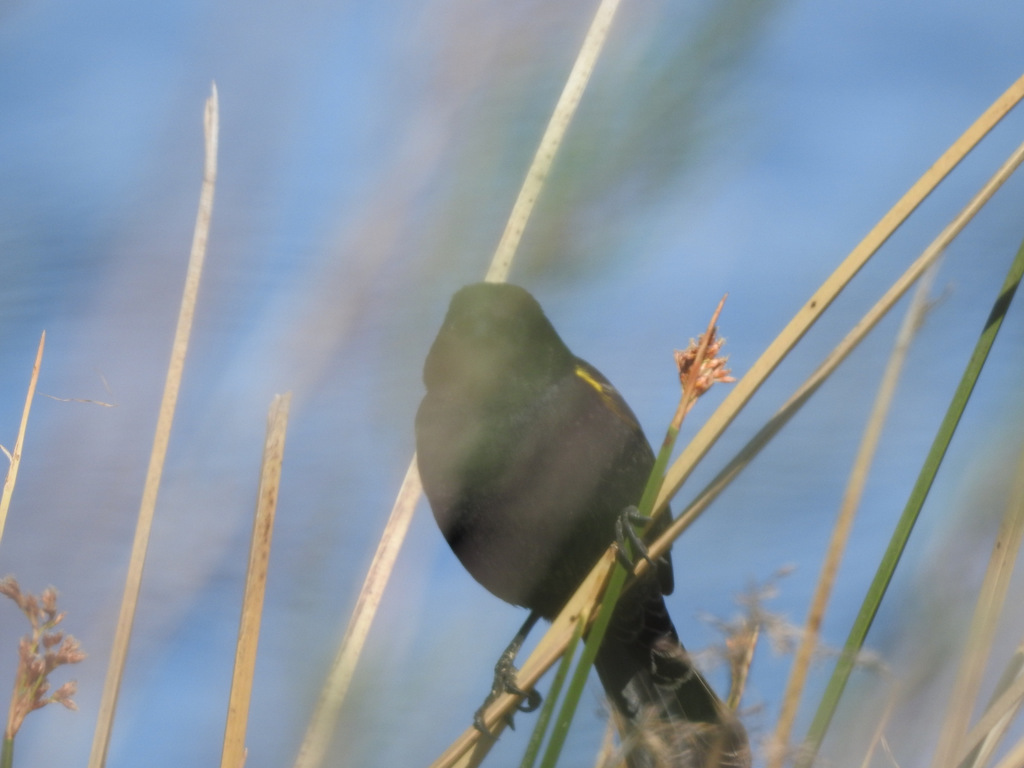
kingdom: Animalia
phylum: Chordata
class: Aves
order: Passeriformes
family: Icteridae
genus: Agelasticus
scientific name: Agelasticus thilius
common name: Yellow-winged blackbird
